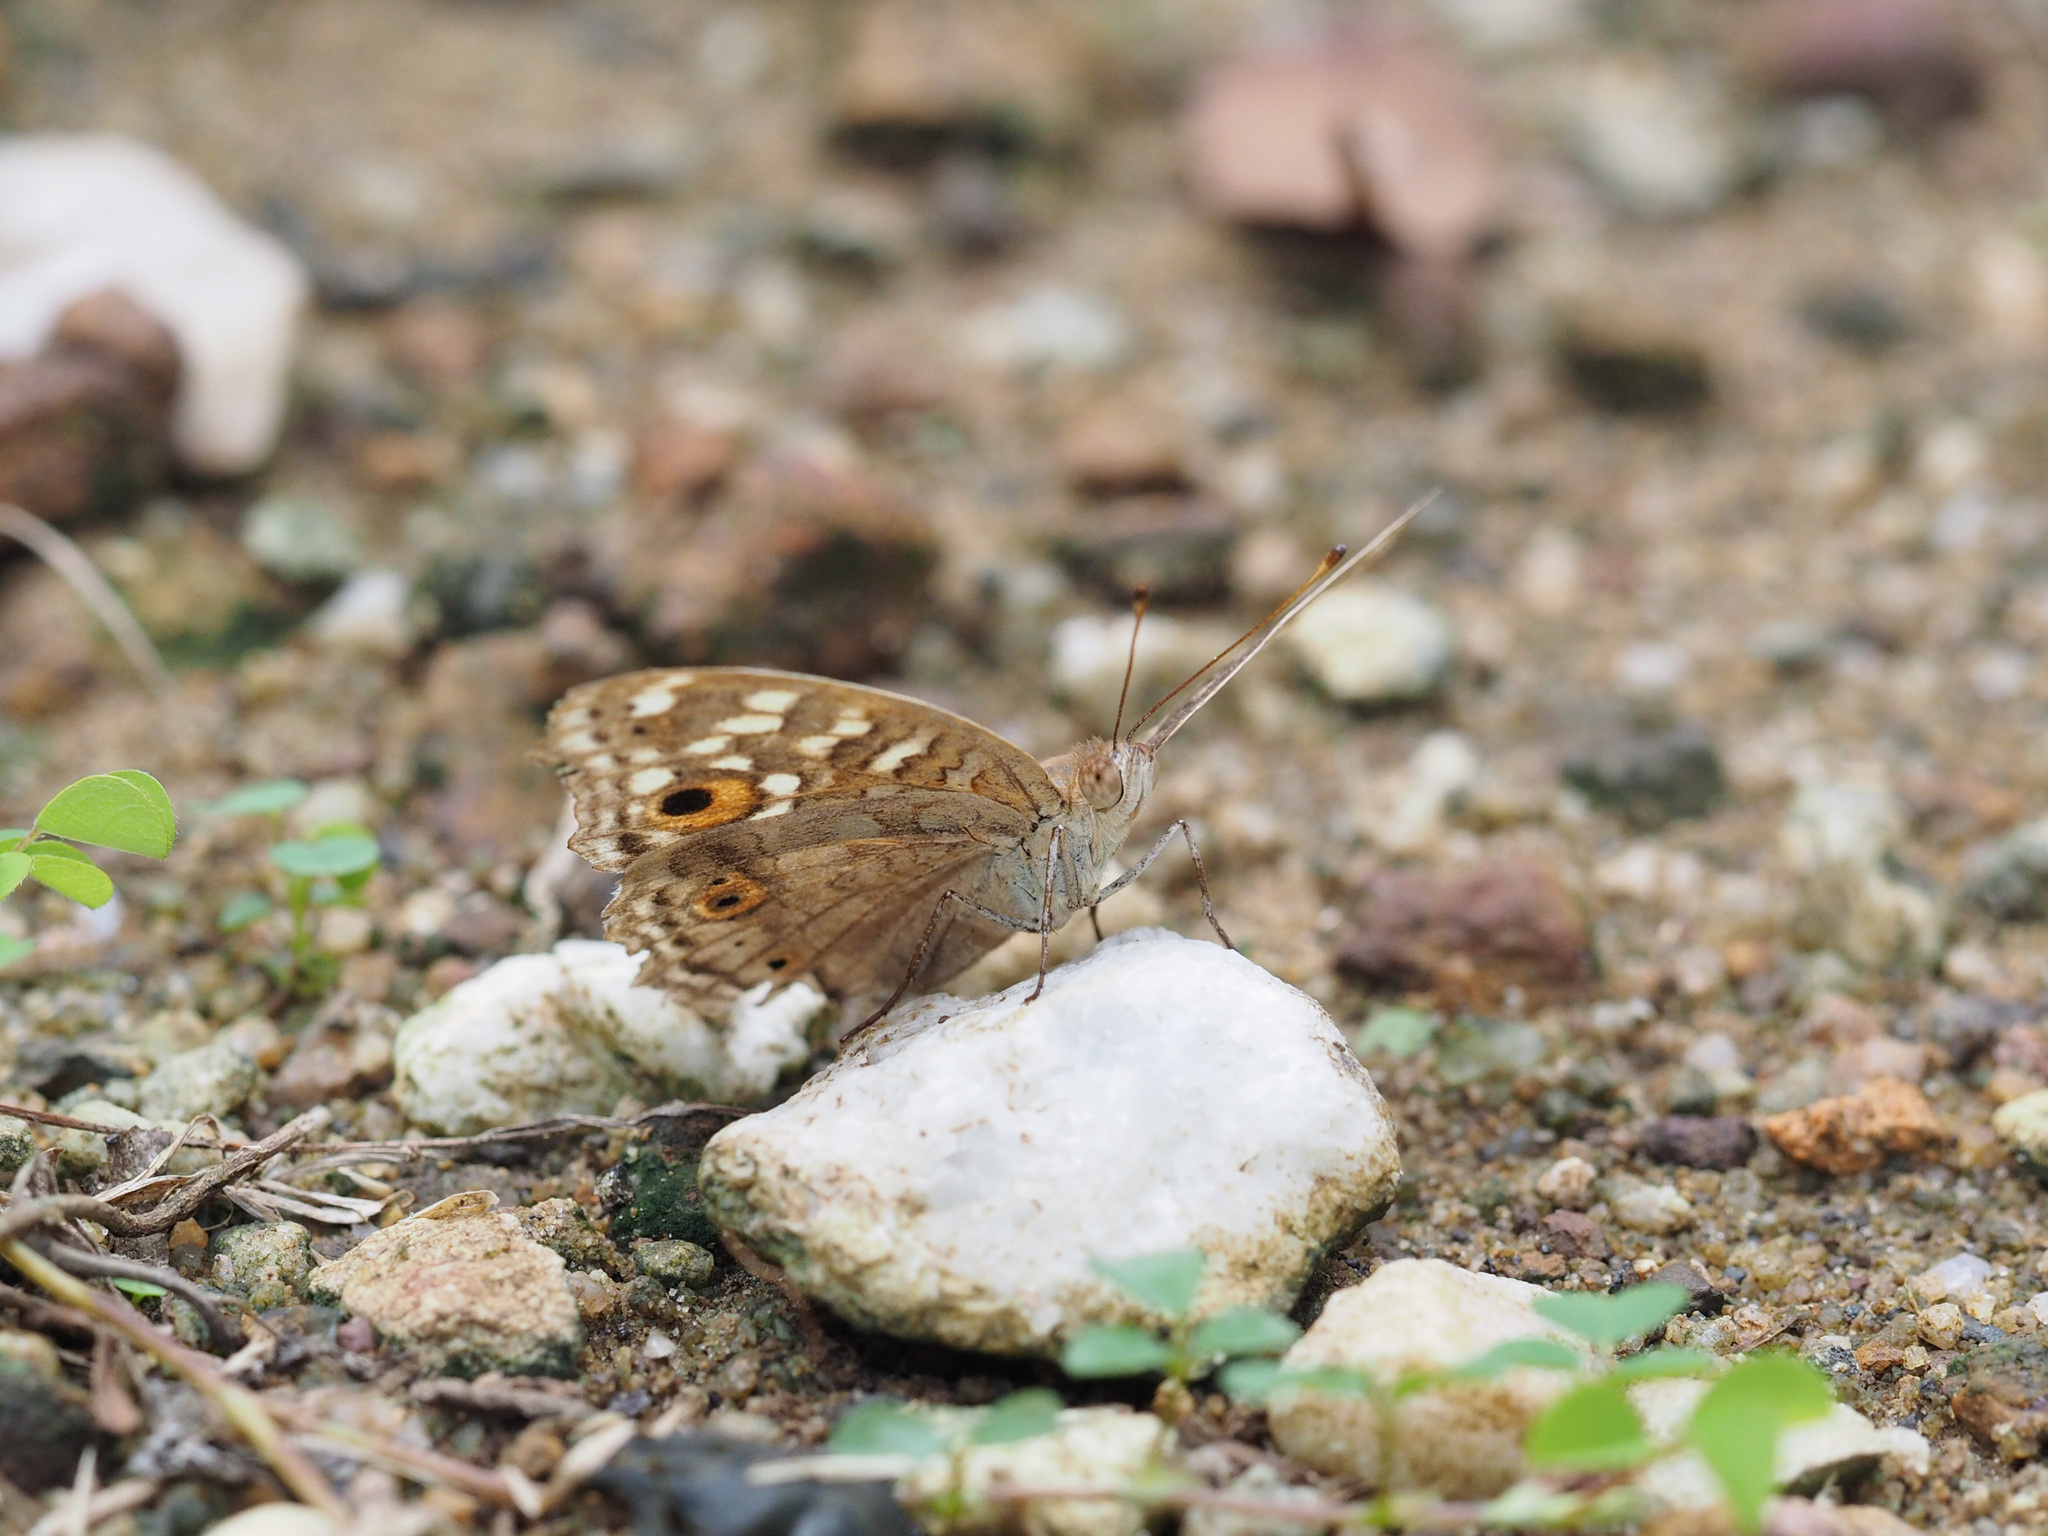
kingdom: Animalia
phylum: Arthropoda
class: Insecta
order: Lepidoptera
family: Nymphalidae
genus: Junonia
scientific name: Junonia lemonias
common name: Lemon pansy
